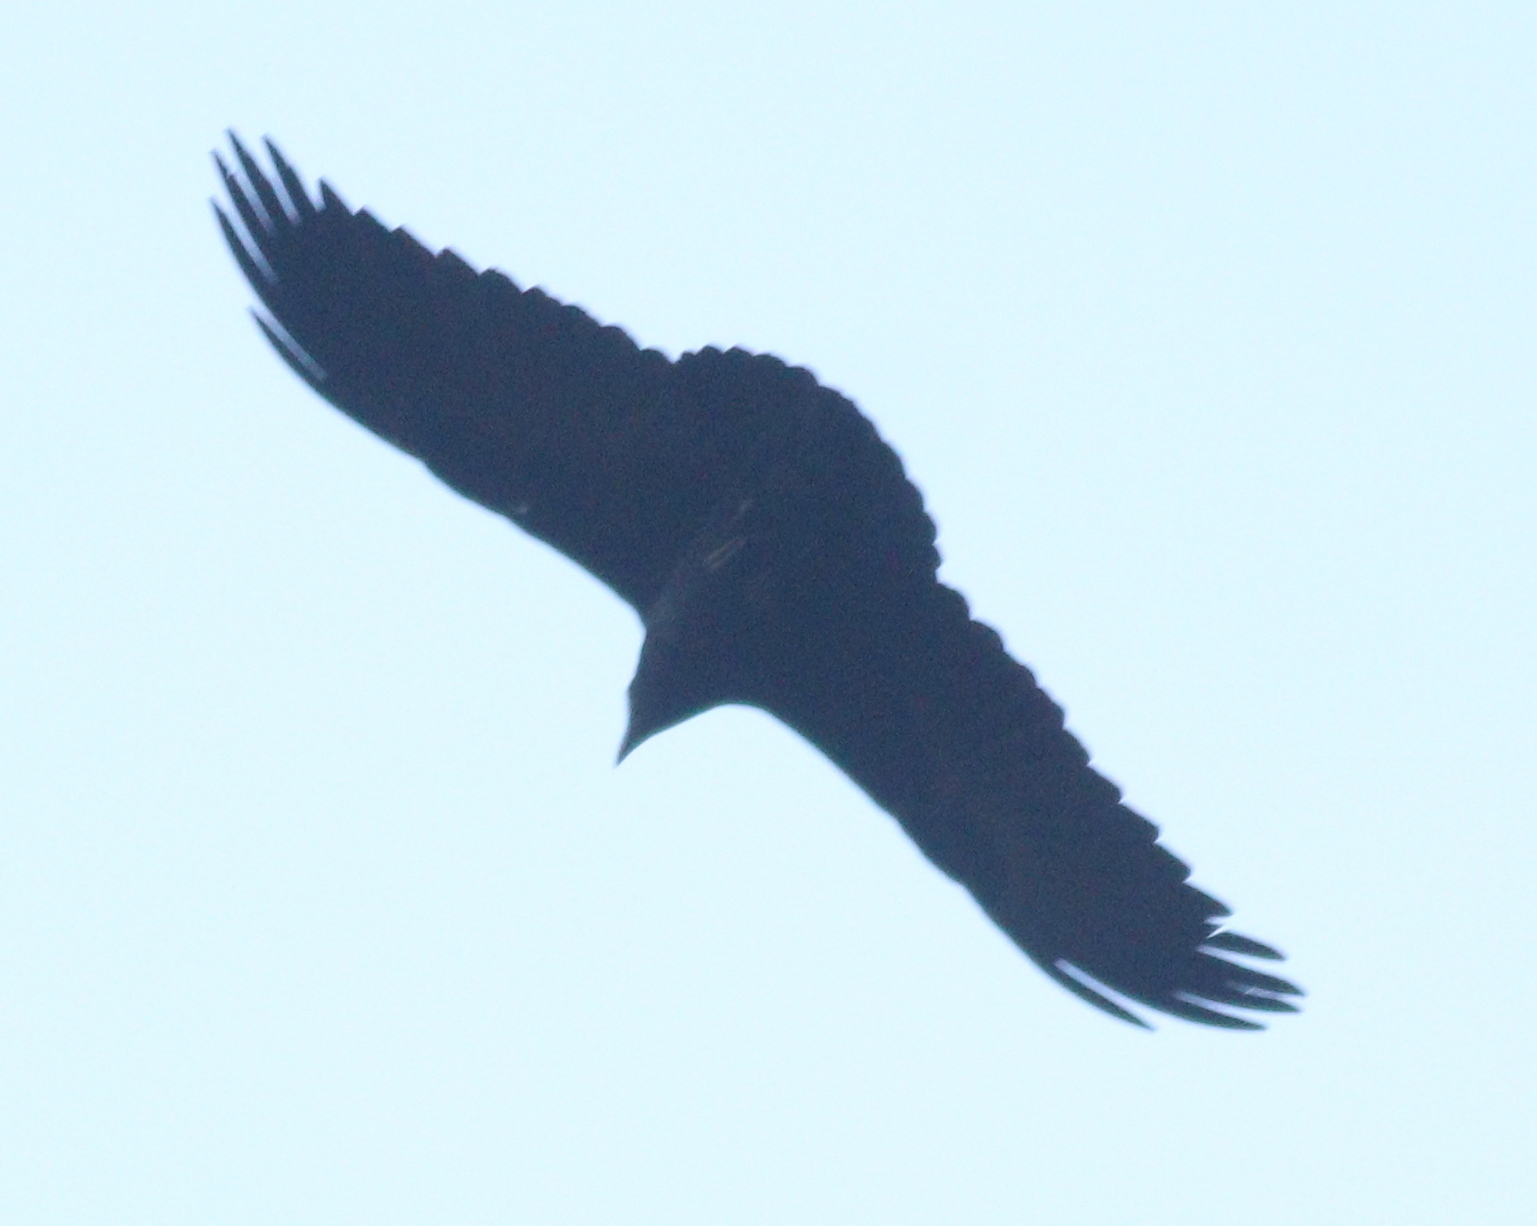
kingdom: Animalia
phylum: Chordata
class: Aves
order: Passeriformes
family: Corvidae
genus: Corvus
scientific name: Corvus rhipidurus
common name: Fan-tailed raven
